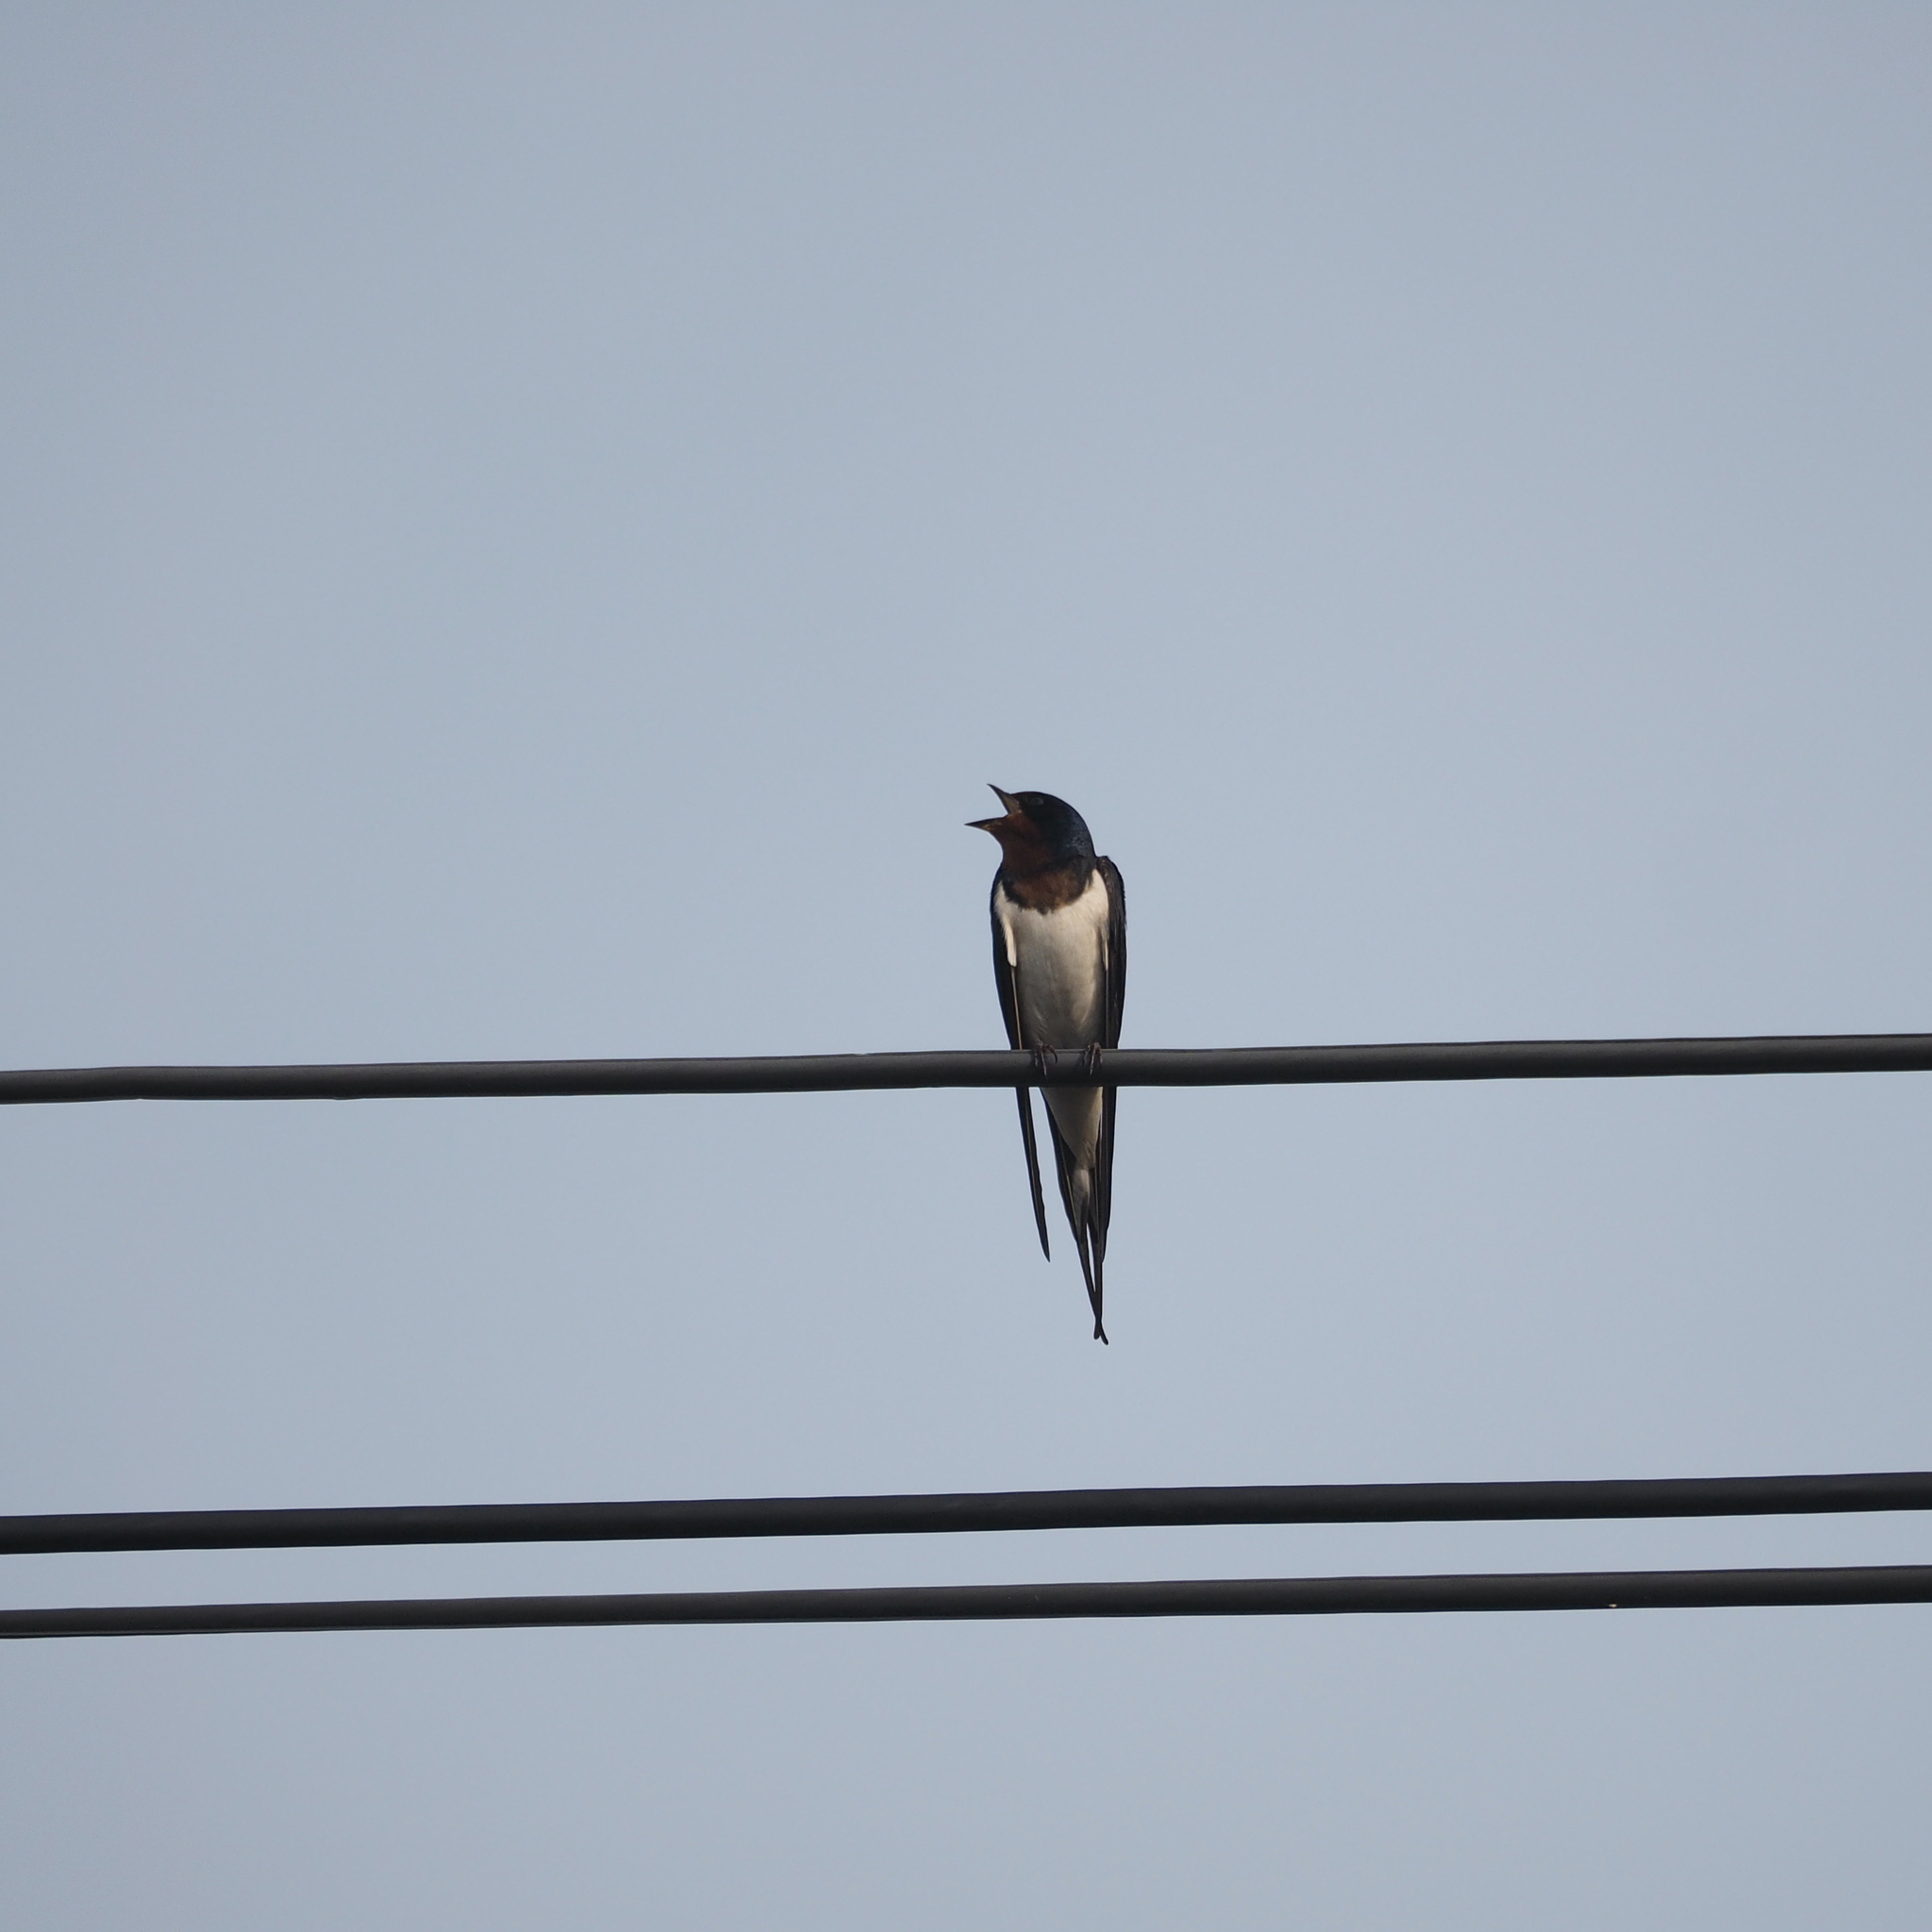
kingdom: Animalia
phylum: Chordata
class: Aves
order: Passeriformes
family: Hirundinidae
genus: Hirundo
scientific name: Hirundo rustica
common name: Barn swallow
